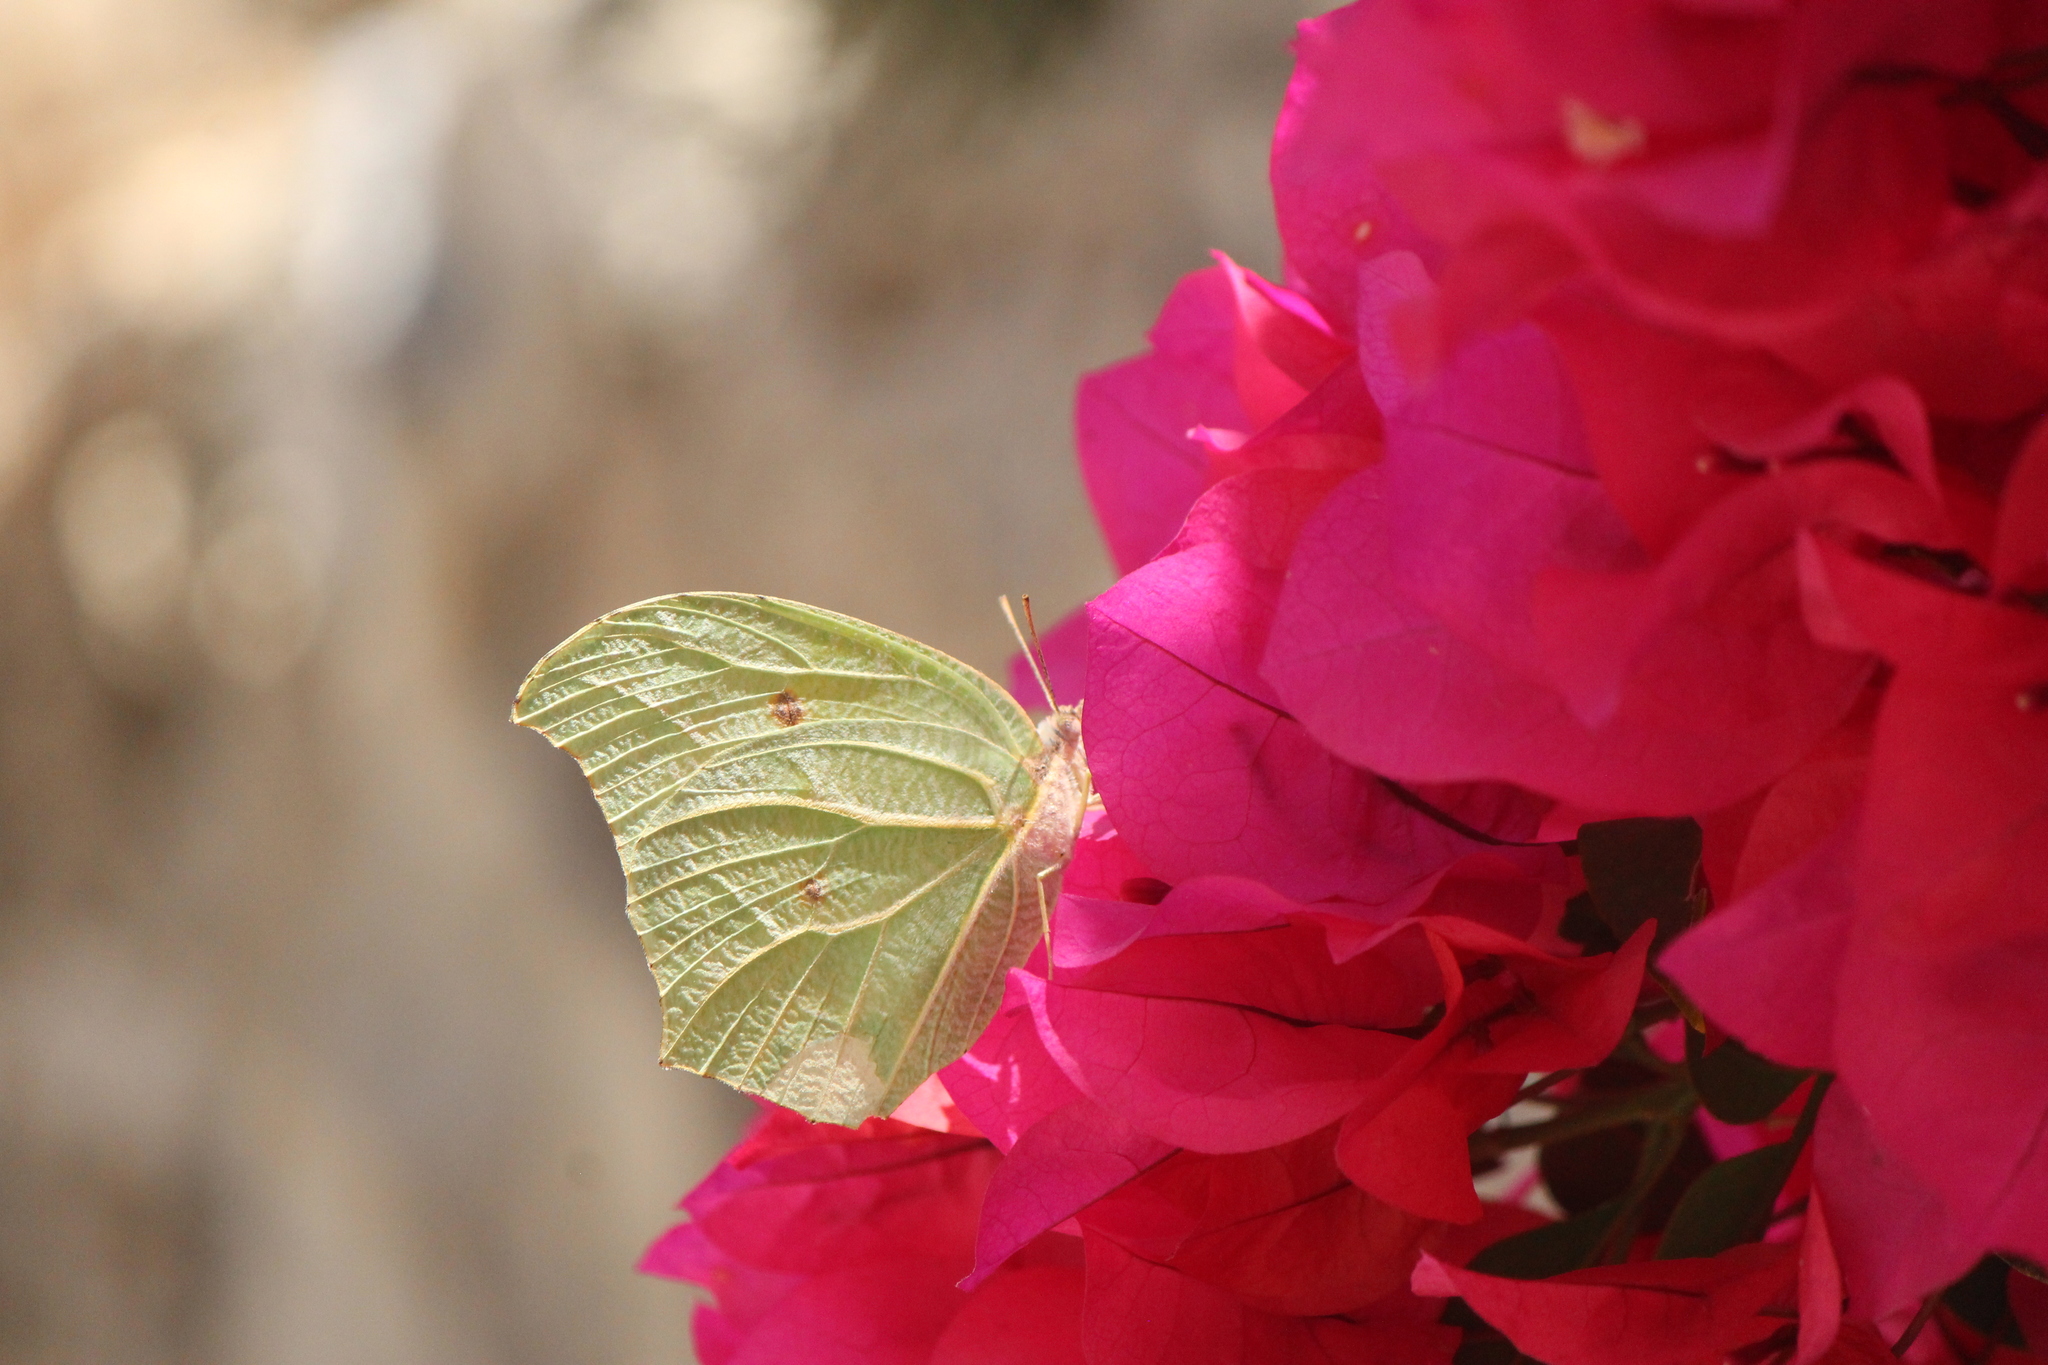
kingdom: Animalia
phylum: Arthropoda
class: Insecta
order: Lepidoptera
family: Pieridae
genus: Anteos
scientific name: Anteos clorinde
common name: White angled sulphur
